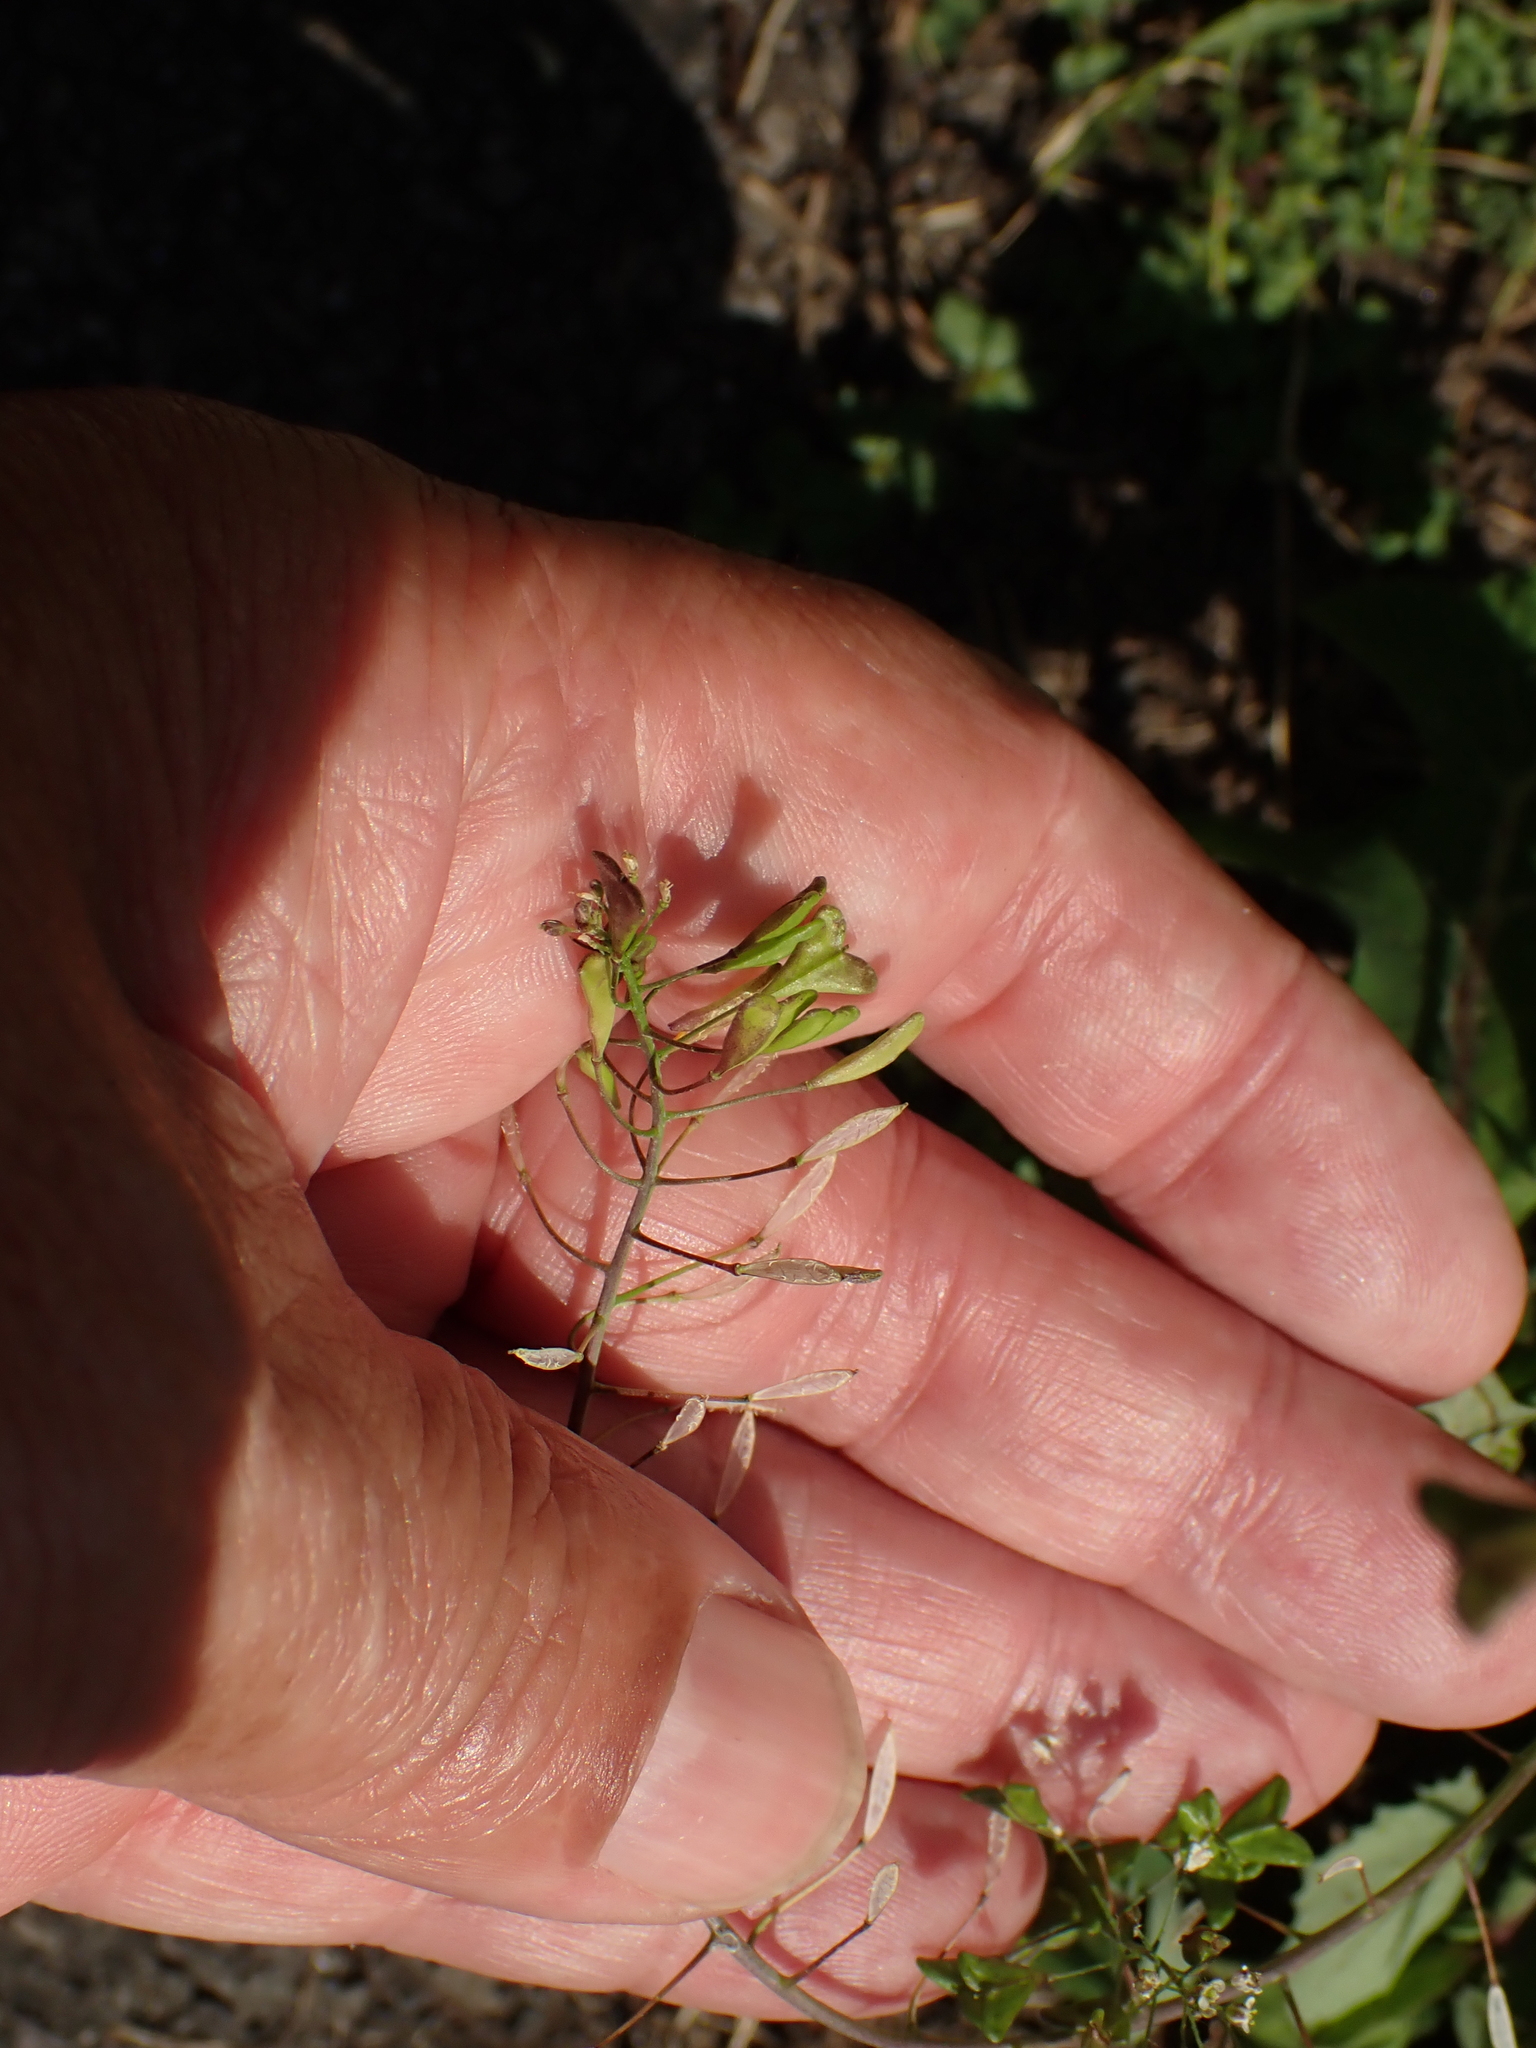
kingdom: Plantae
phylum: Tracheophyta
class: Magnoliopsida
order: Brassicales
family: Brassicaceae
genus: Capsella
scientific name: Capsella bursa-pastoris
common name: Shepherd's purse
